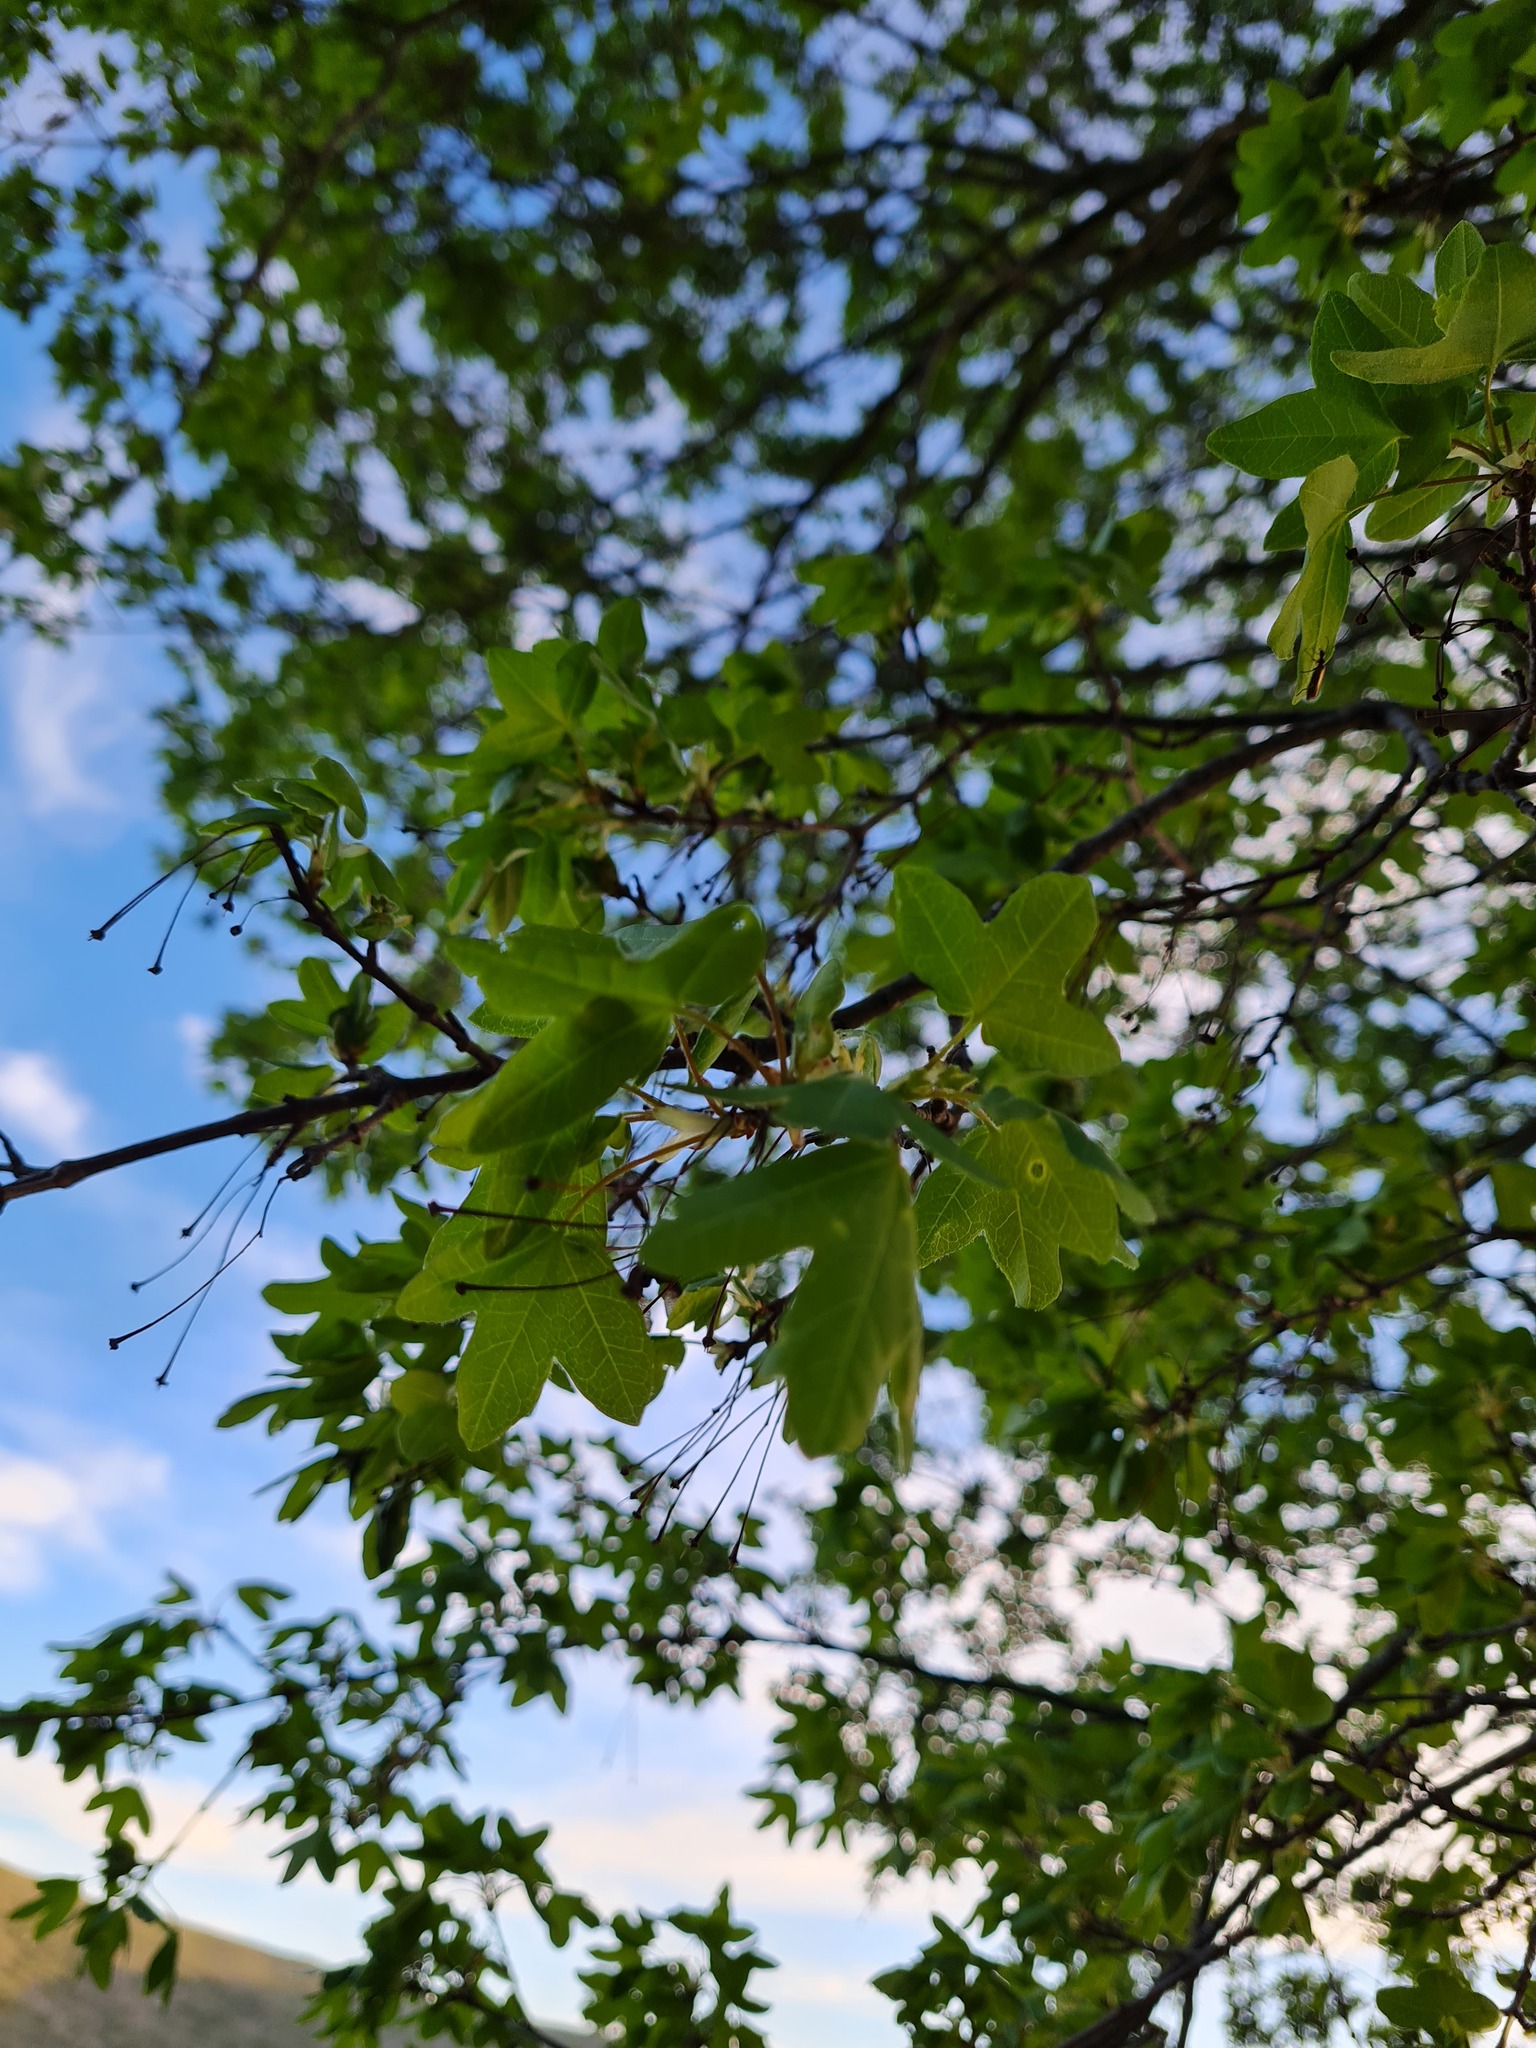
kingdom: Plantae
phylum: Tracheophyta
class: Magnoliopsida
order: Sapindales
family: Sapindaceae
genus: Acer
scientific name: Acer monspessulanum
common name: Montpellier maple
